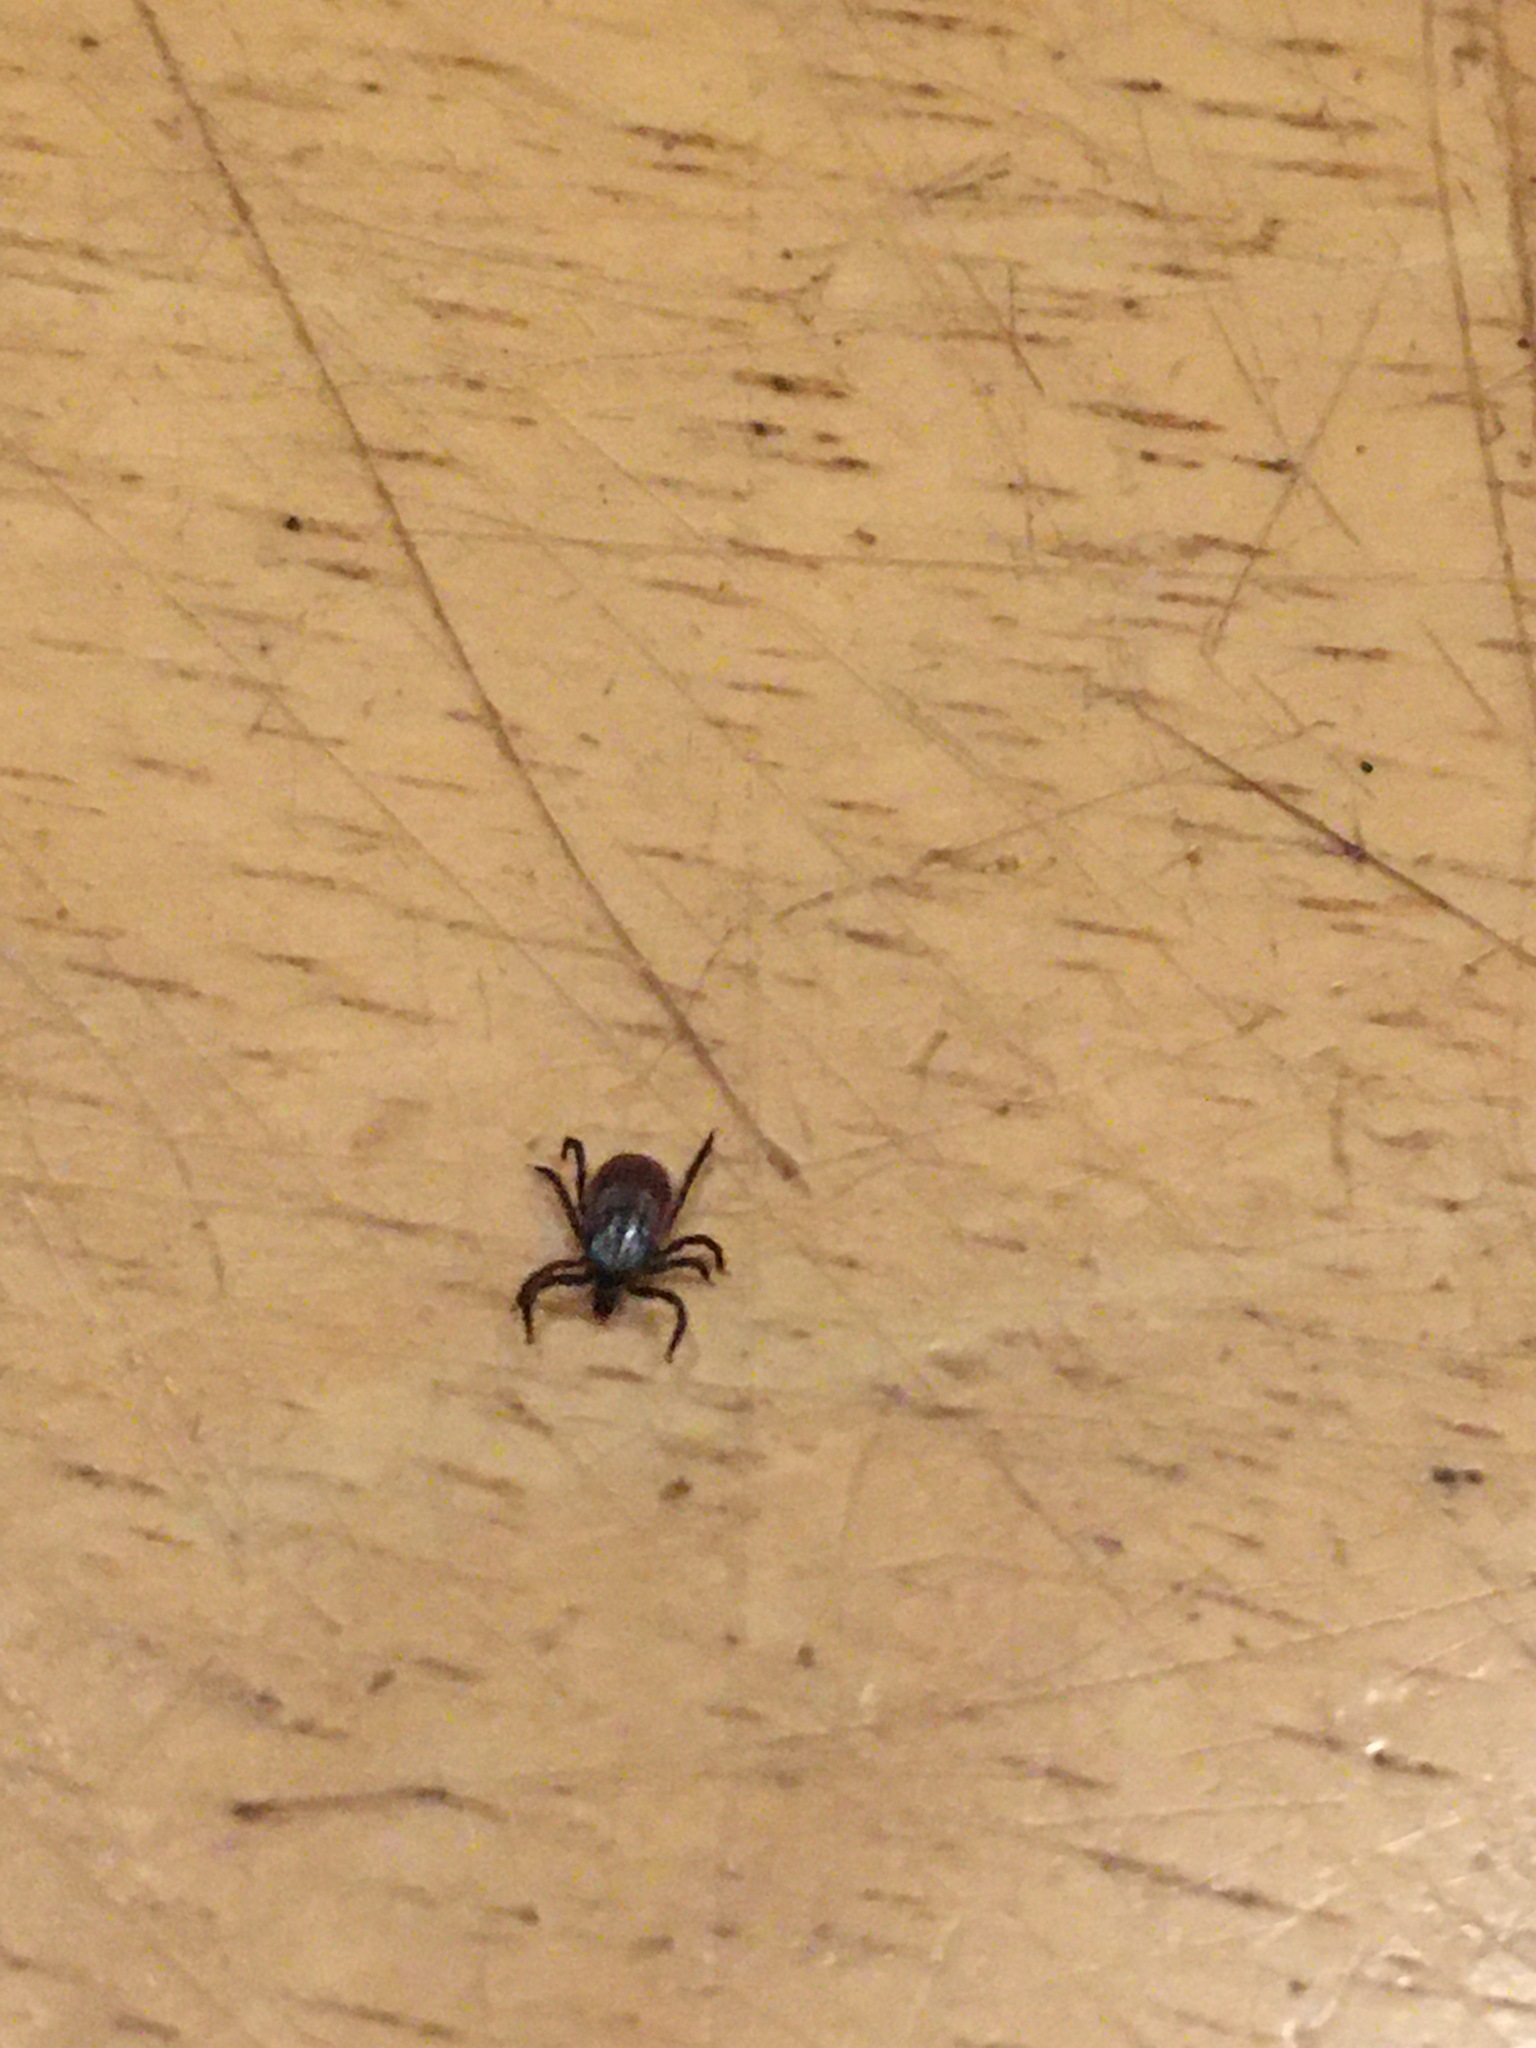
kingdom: Animalia
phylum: Arthropoda
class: Arachnida
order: Ixodida
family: Ixodidae
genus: Ixodes
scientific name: Ixodes pacificus
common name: California black-legged tick
